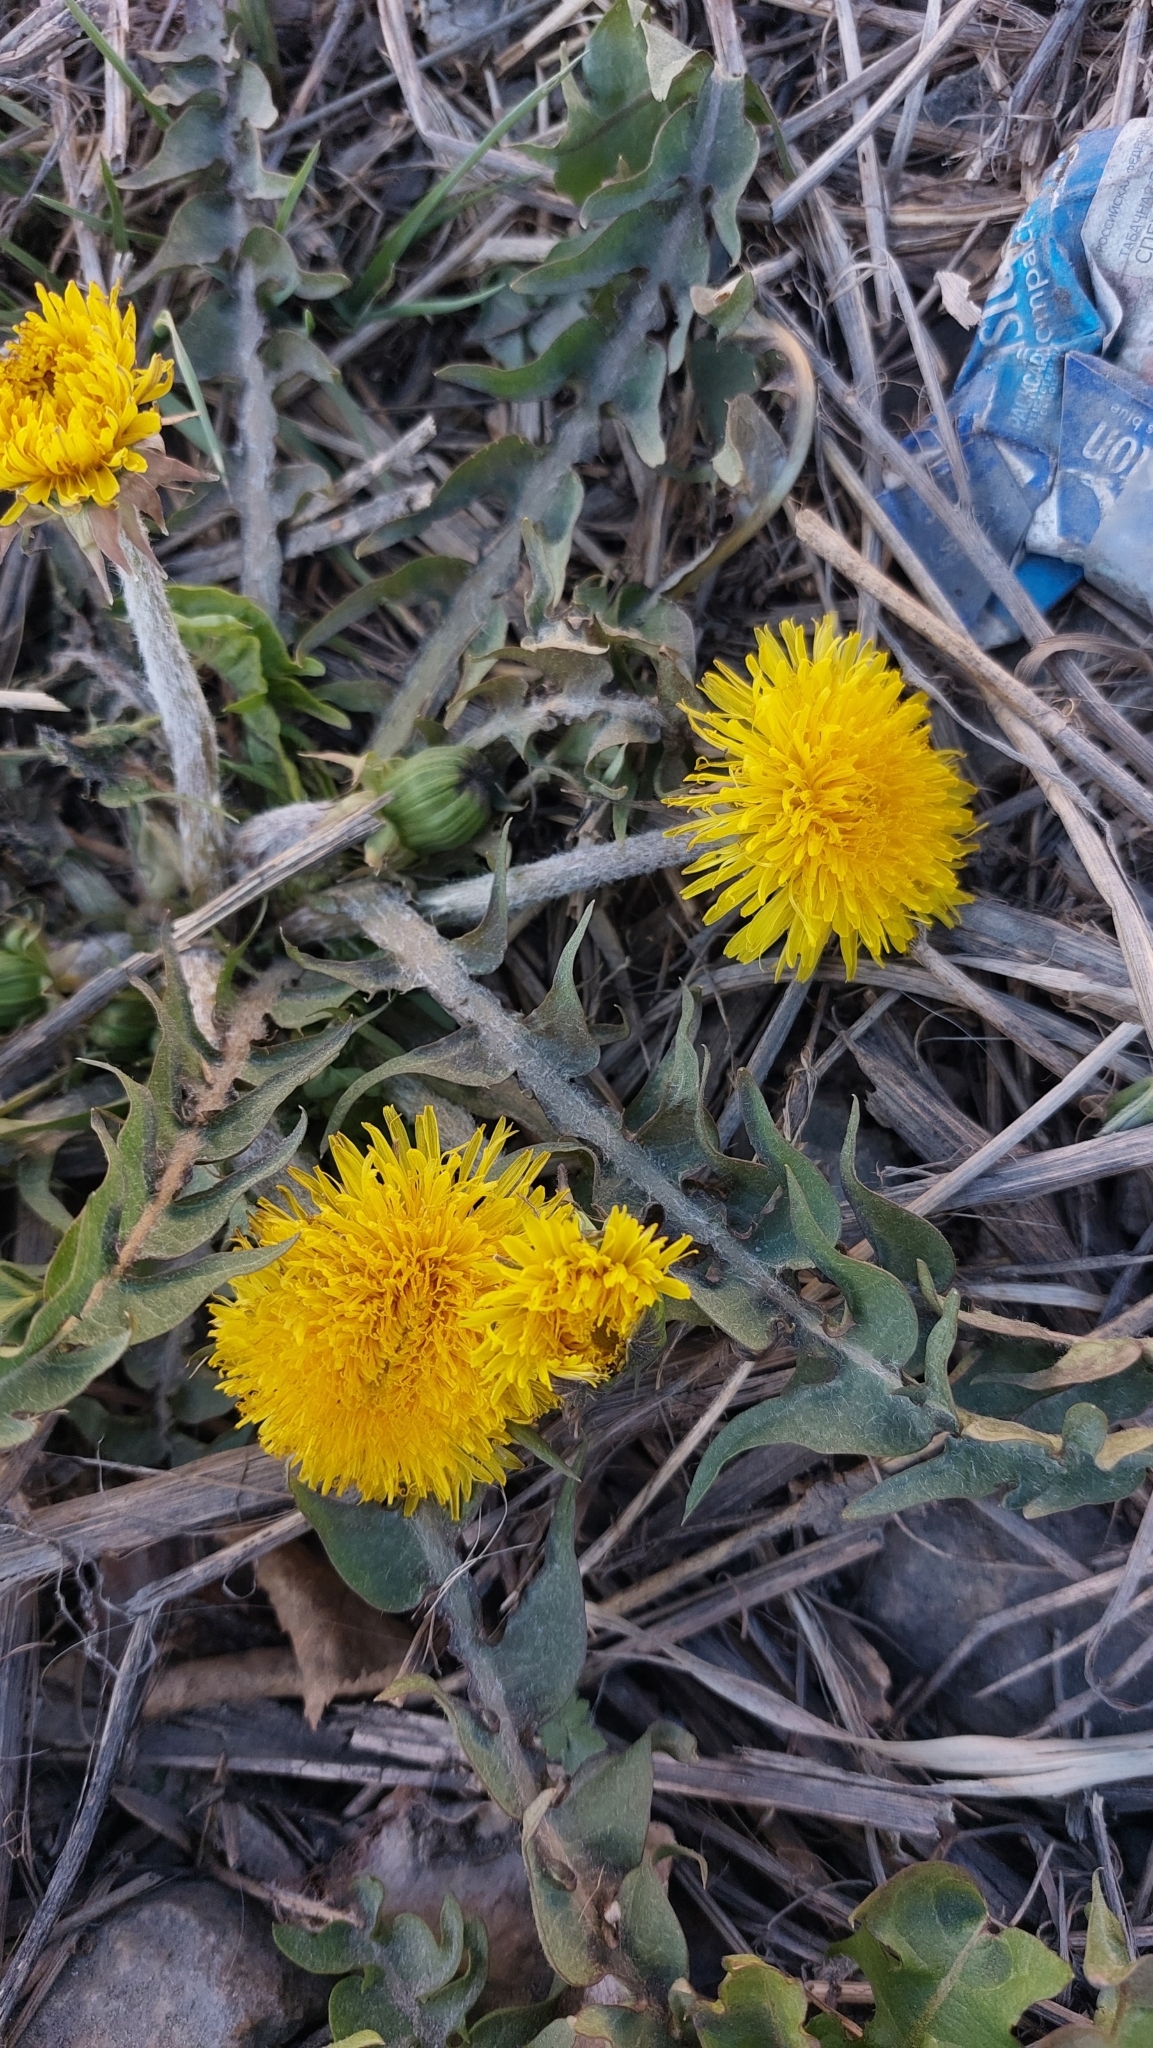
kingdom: Plantae
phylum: Tracheophyta
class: Magnoliopsida
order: Asterales
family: Asteraceae
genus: Taraxacum
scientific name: Taraxacum officinale
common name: Common dandelion
